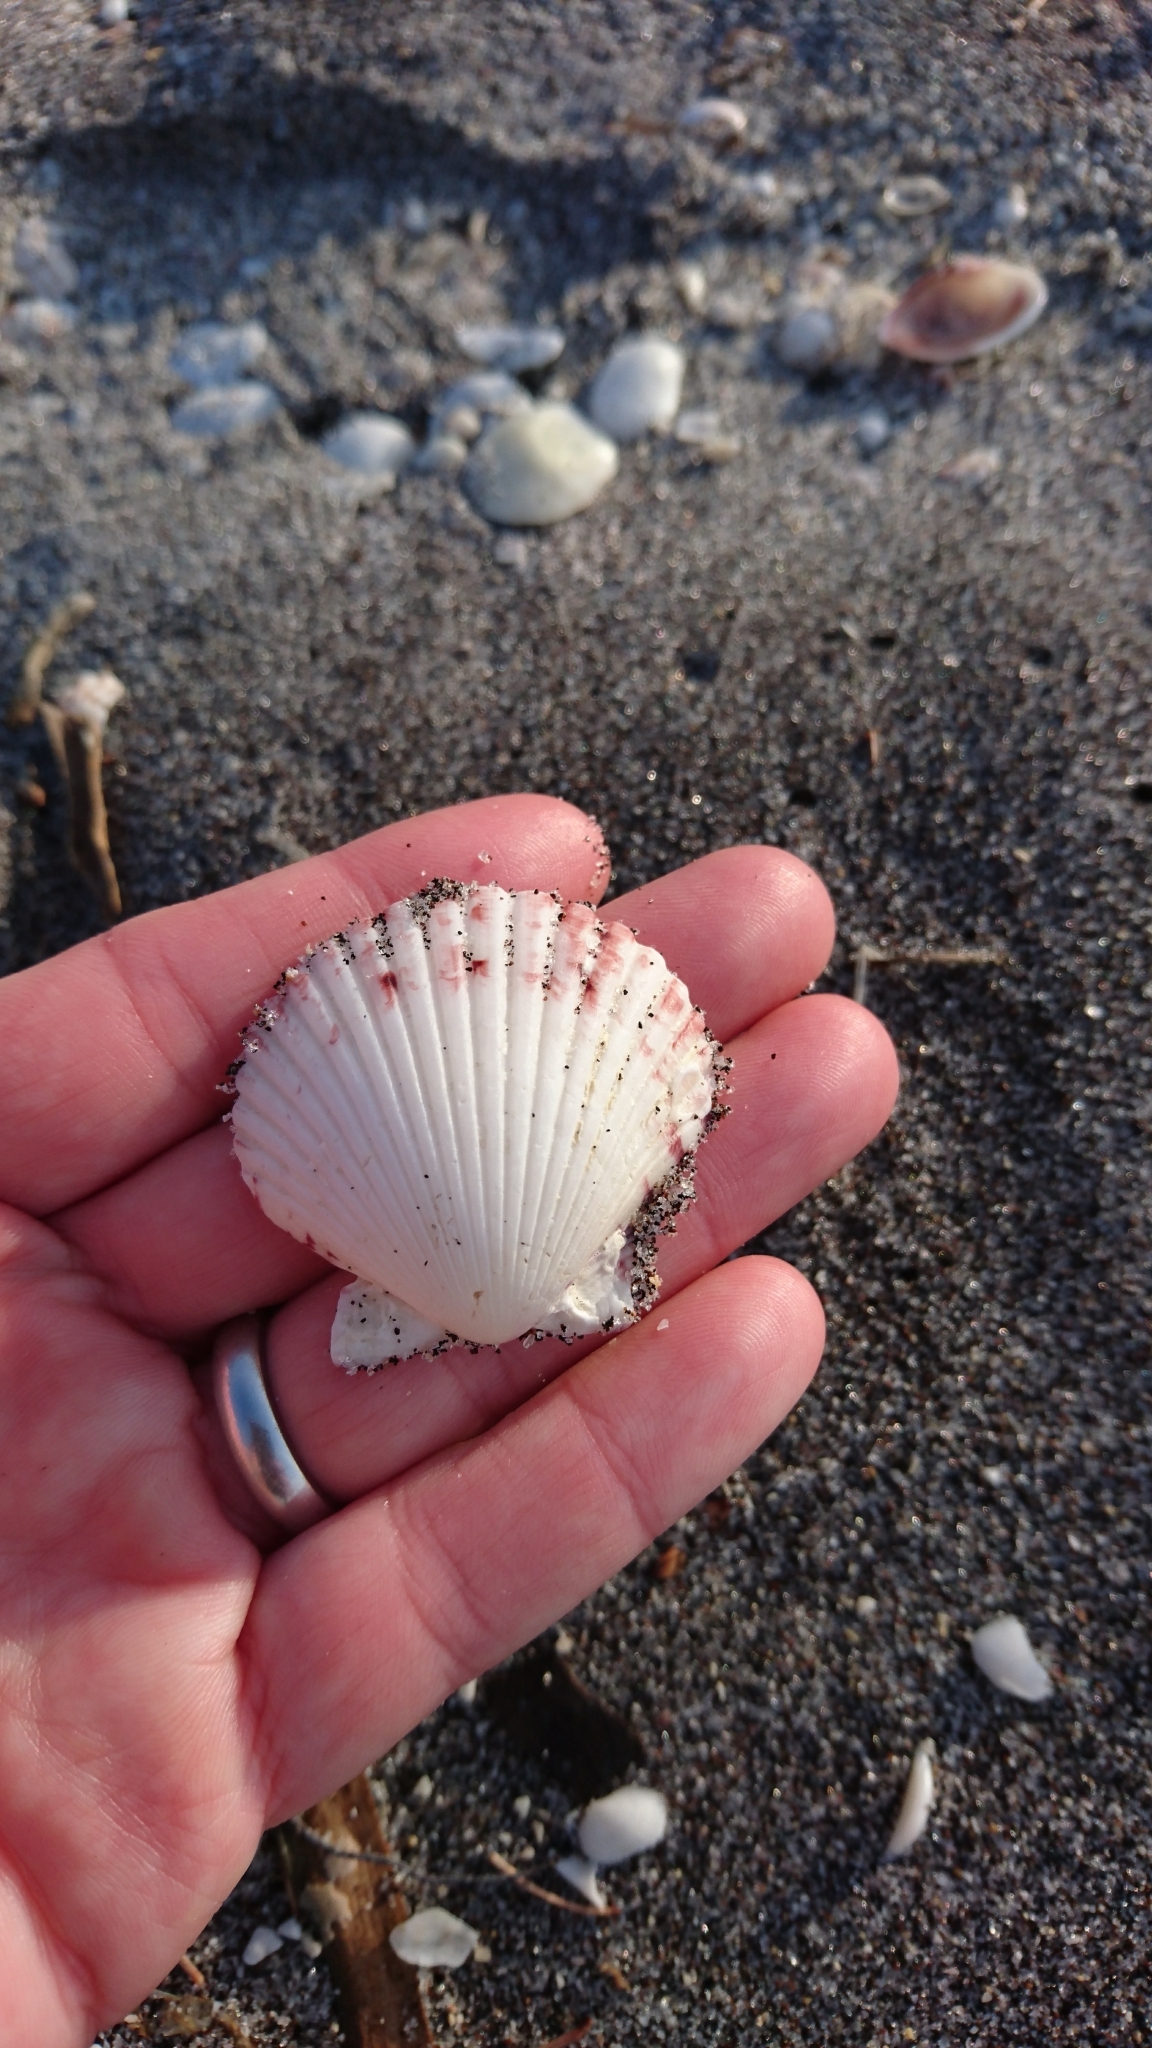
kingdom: Animalia
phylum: Mollusca
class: Bivalvia
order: Pectinida
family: Pectinidae
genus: Argopecten
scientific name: Argopecten gibbus
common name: Atlantic calico scallop
